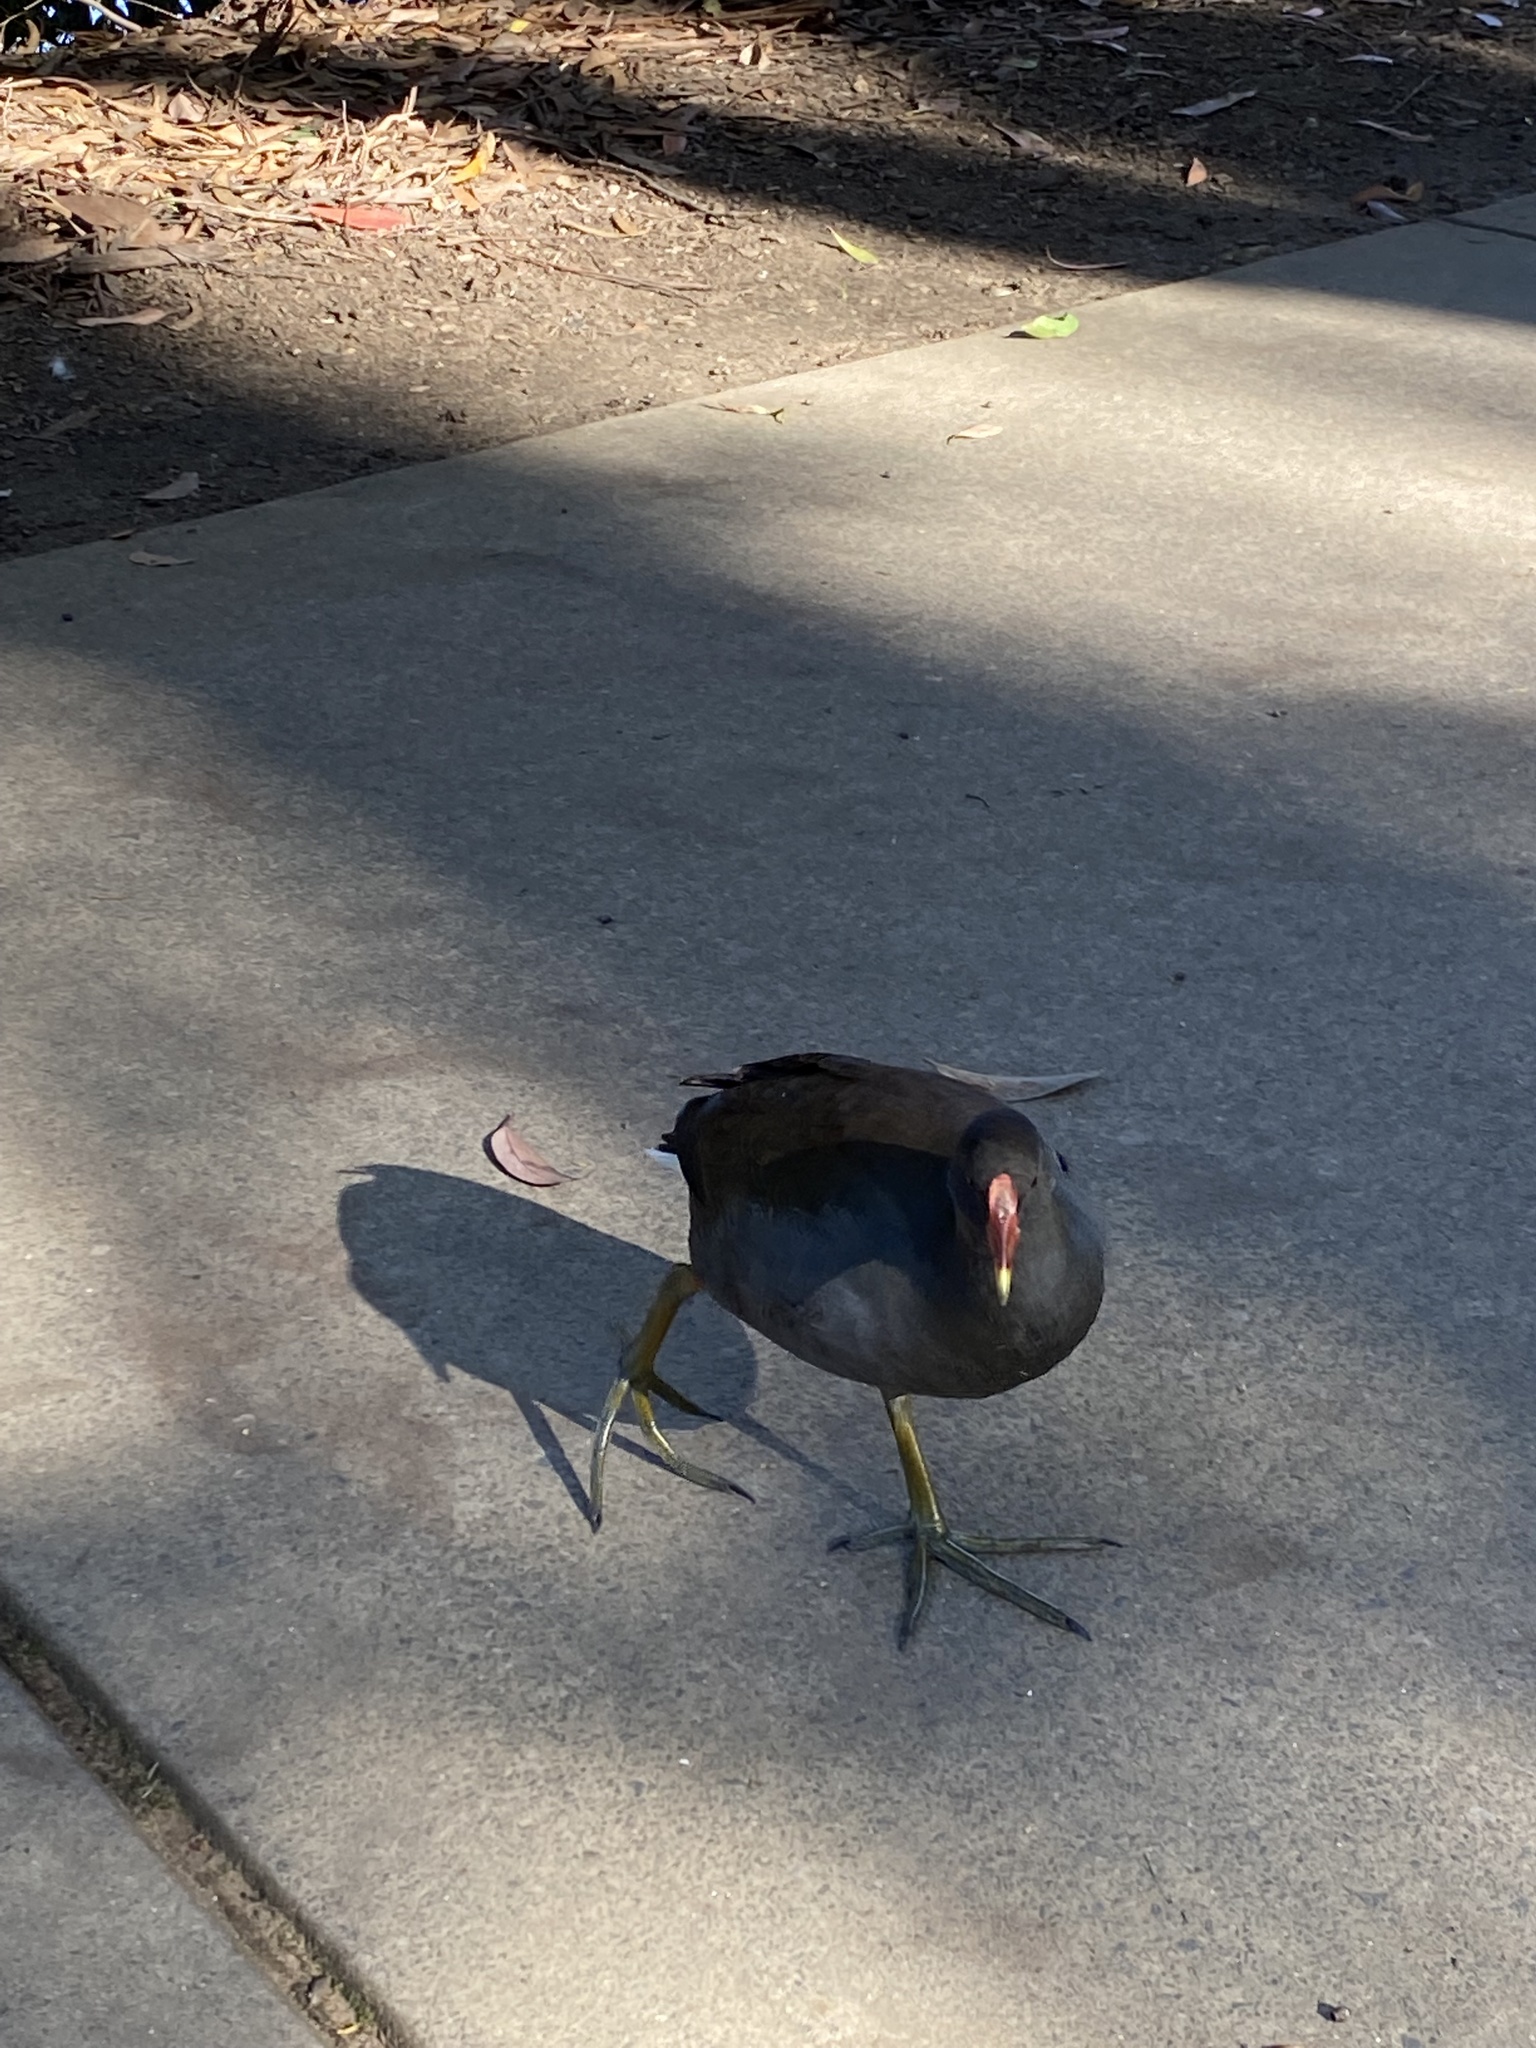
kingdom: Animalia
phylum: Chordata
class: Aves
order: Gruiformes
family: Rallidae
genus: Gallinula
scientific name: Gallinula tenebrosa
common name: Dusky moorhen
